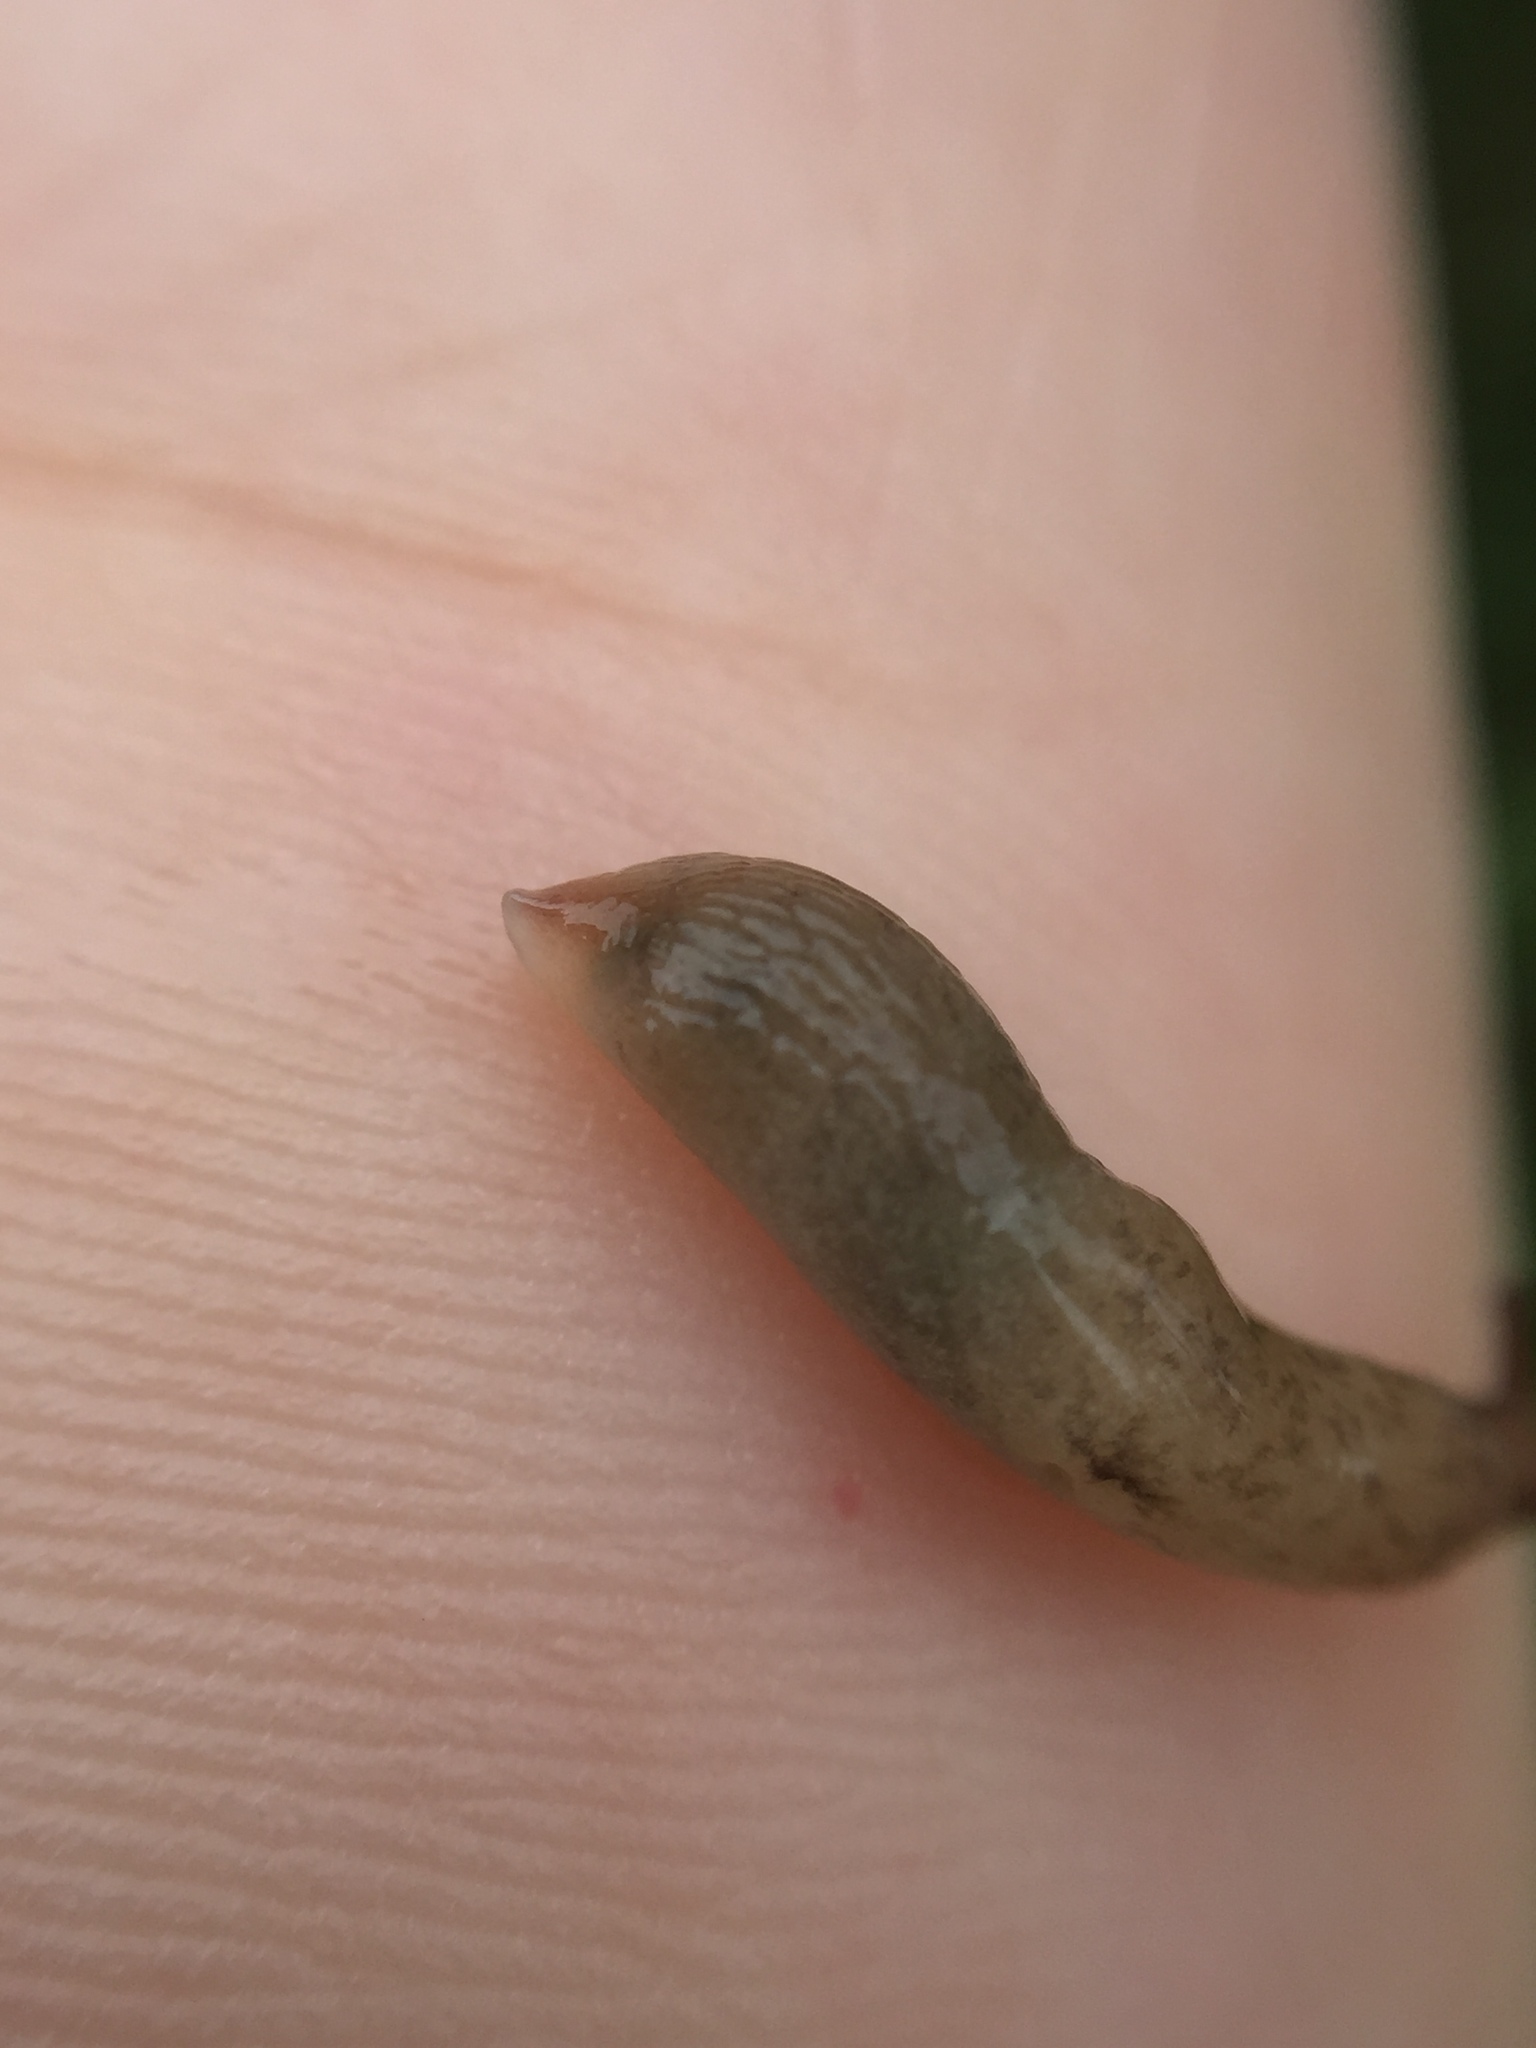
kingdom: Animalia
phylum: Mollusca
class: Gastropoda
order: Stylommatophora
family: Agriolimacidae
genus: Deroceras
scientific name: Deroceras reticulatum
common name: Gray field slug
